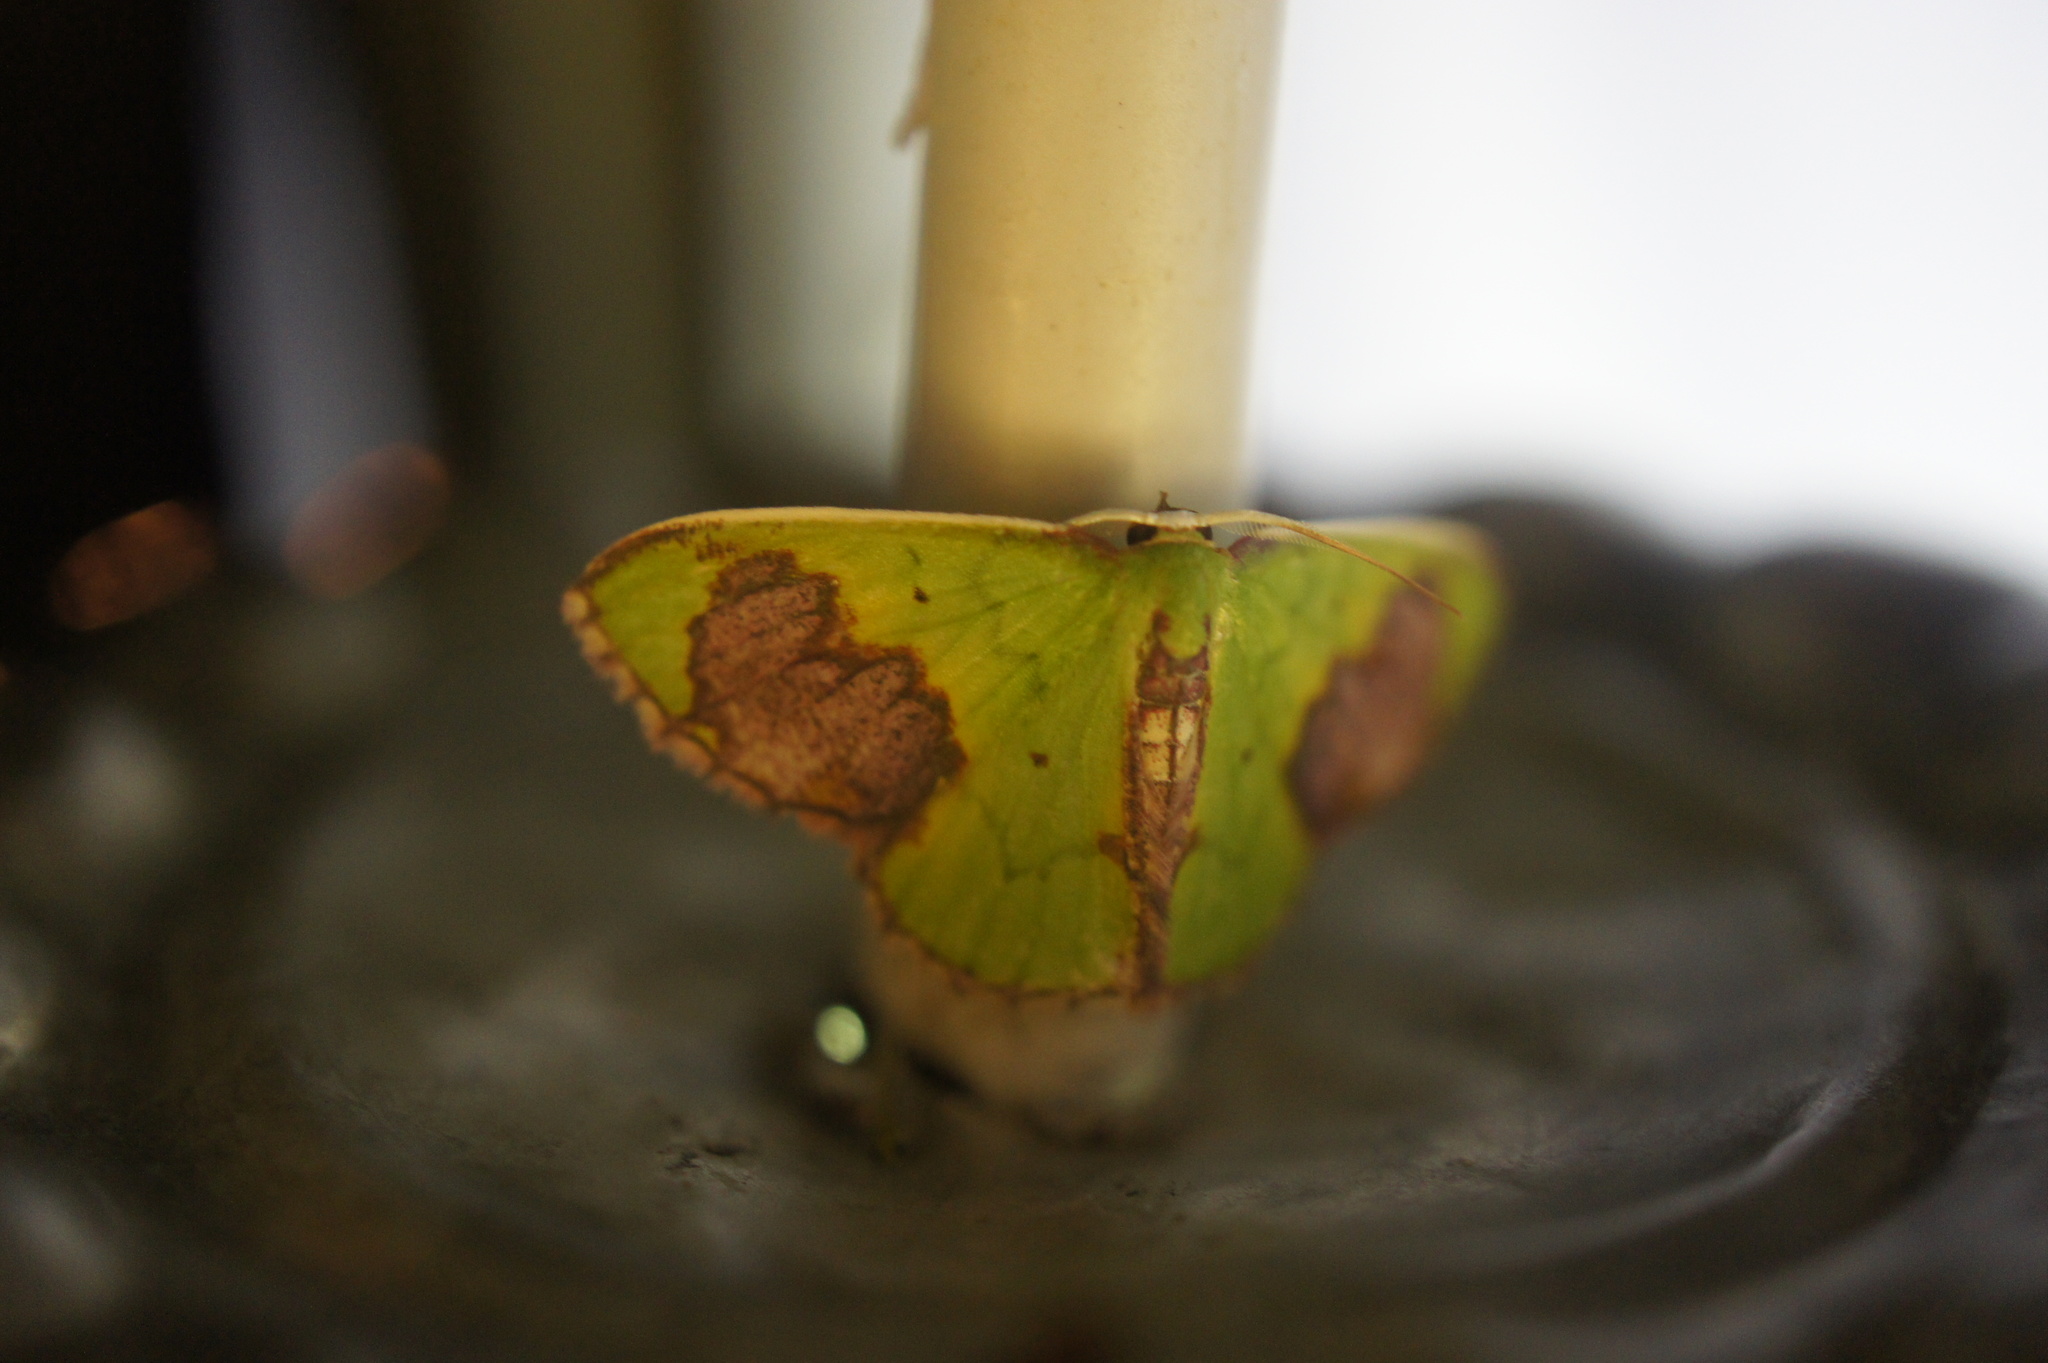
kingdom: Animalia
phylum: Arthropoda
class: Insecta
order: Lepidoptera
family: Geometridae
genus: Rhombocentra
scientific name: Rhombocentra semipurpurea
